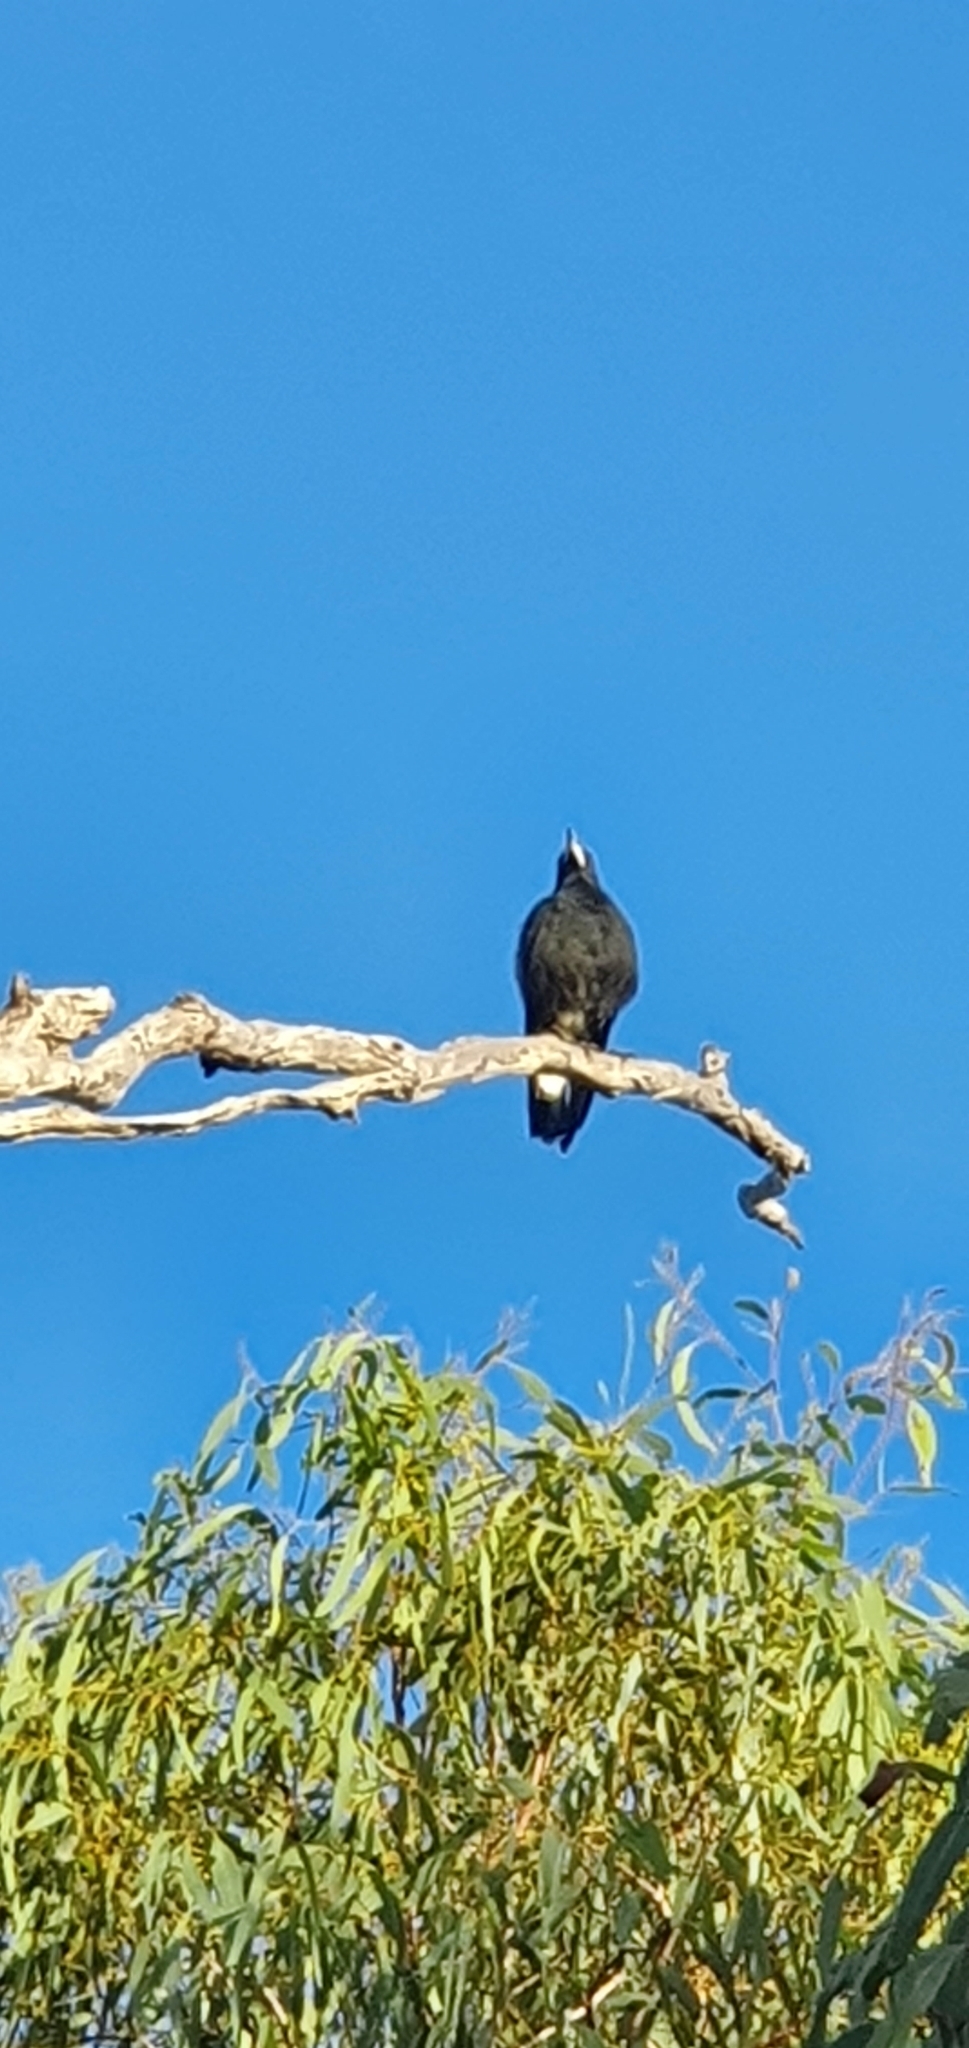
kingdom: Animalia
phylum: Chordata
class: Aves
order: Passeriformes
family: Cracticidae
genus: Gymnorhina
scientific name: Gymnorhina tibicen
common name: Australian magpie
